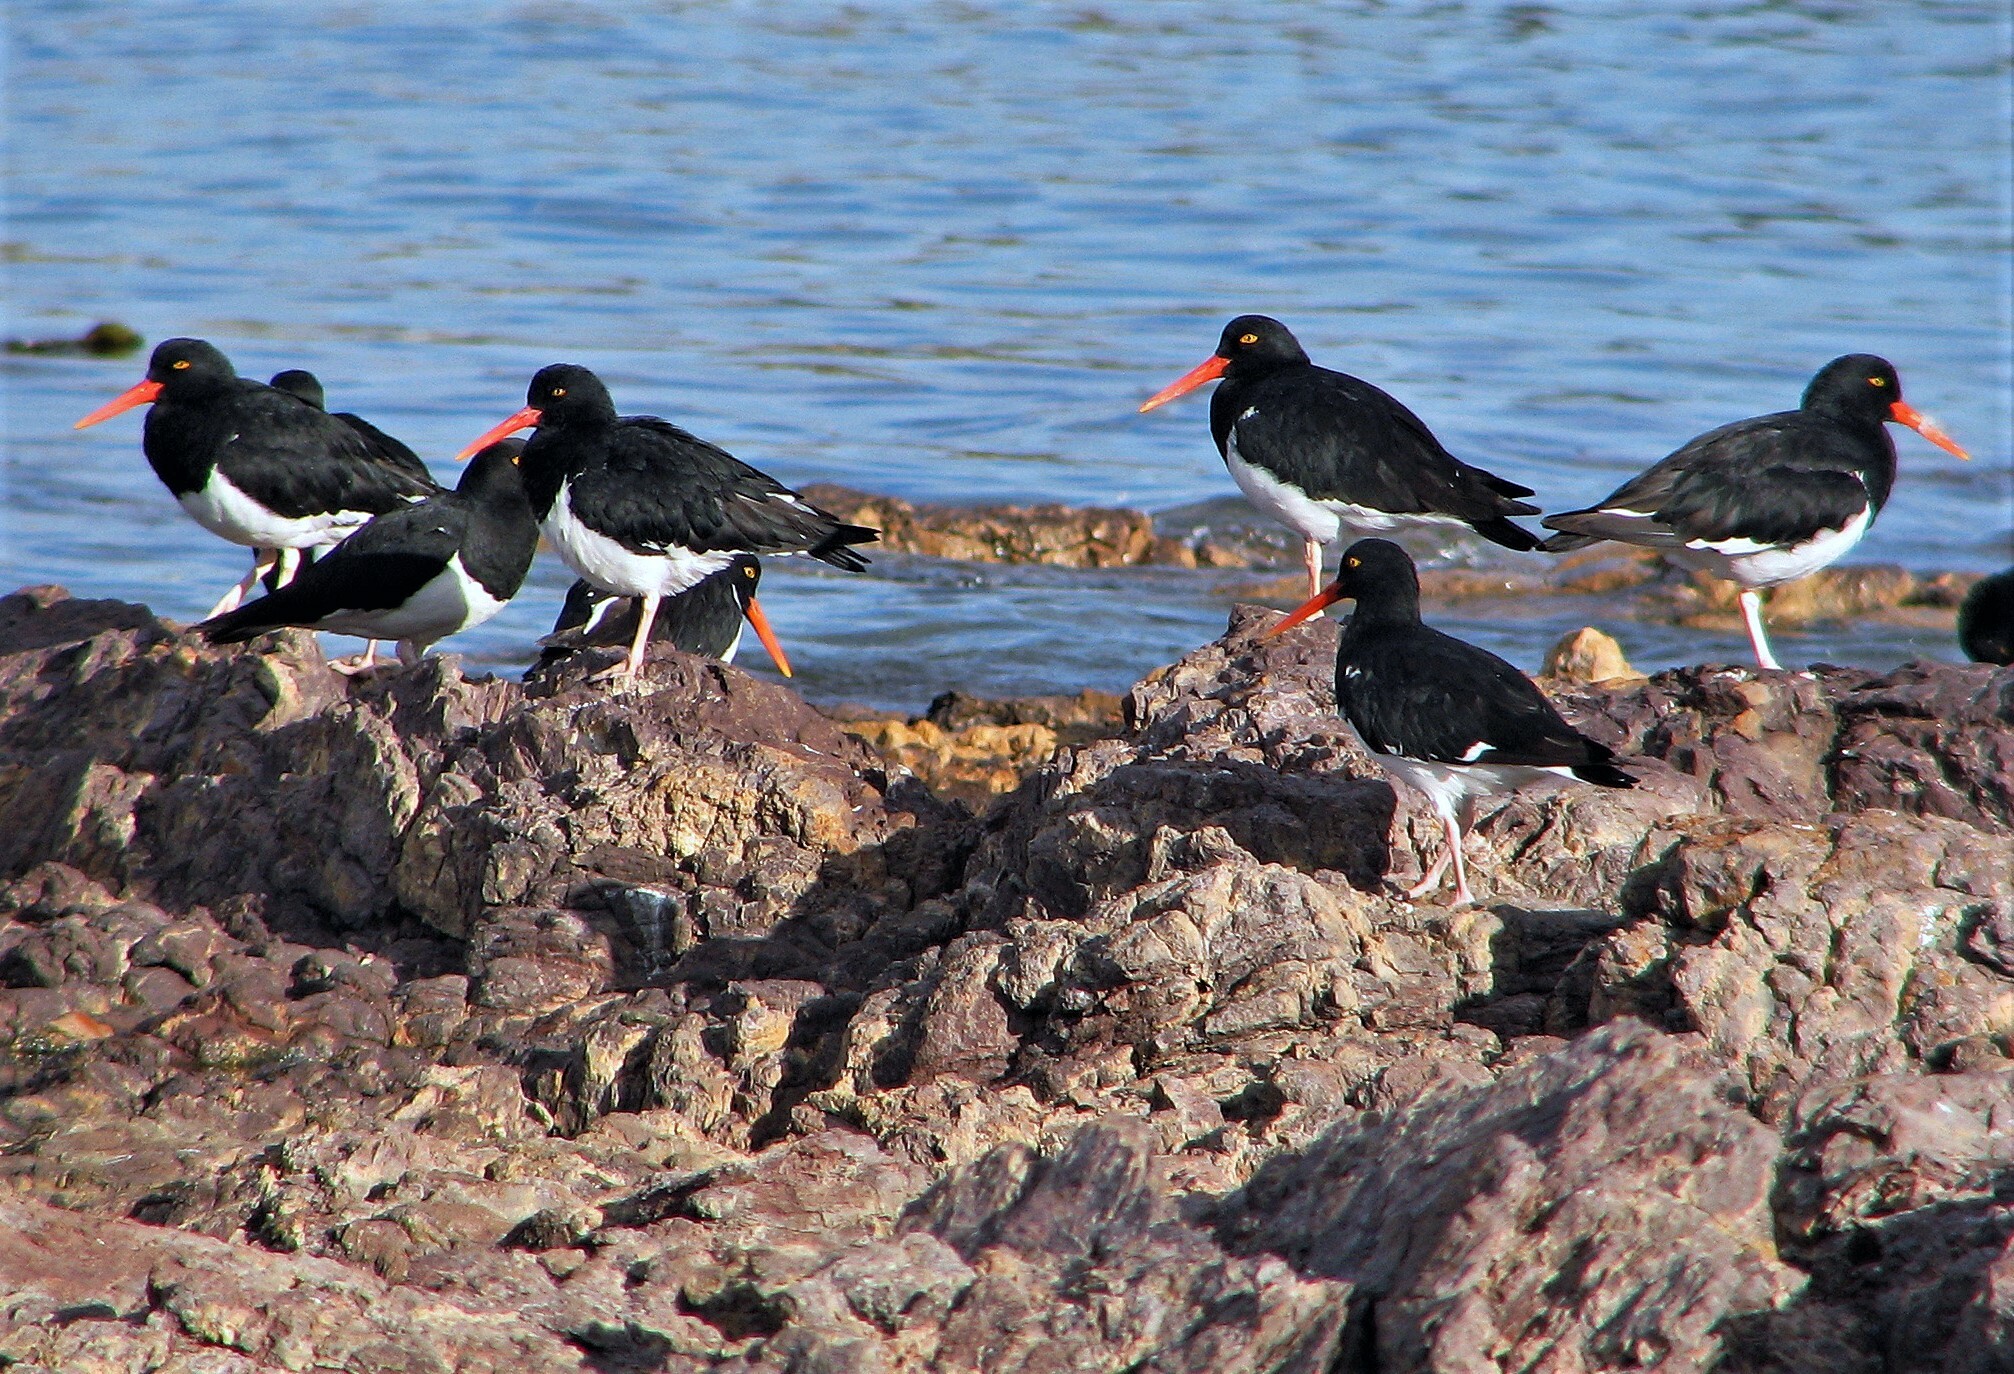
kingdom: Animalia
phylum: Chordata
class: Aves
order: Charadriiformes
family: Haematopodidae
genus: Haematopus
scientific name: Haematopus leucopodus
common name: Magellanic oystercatcher
